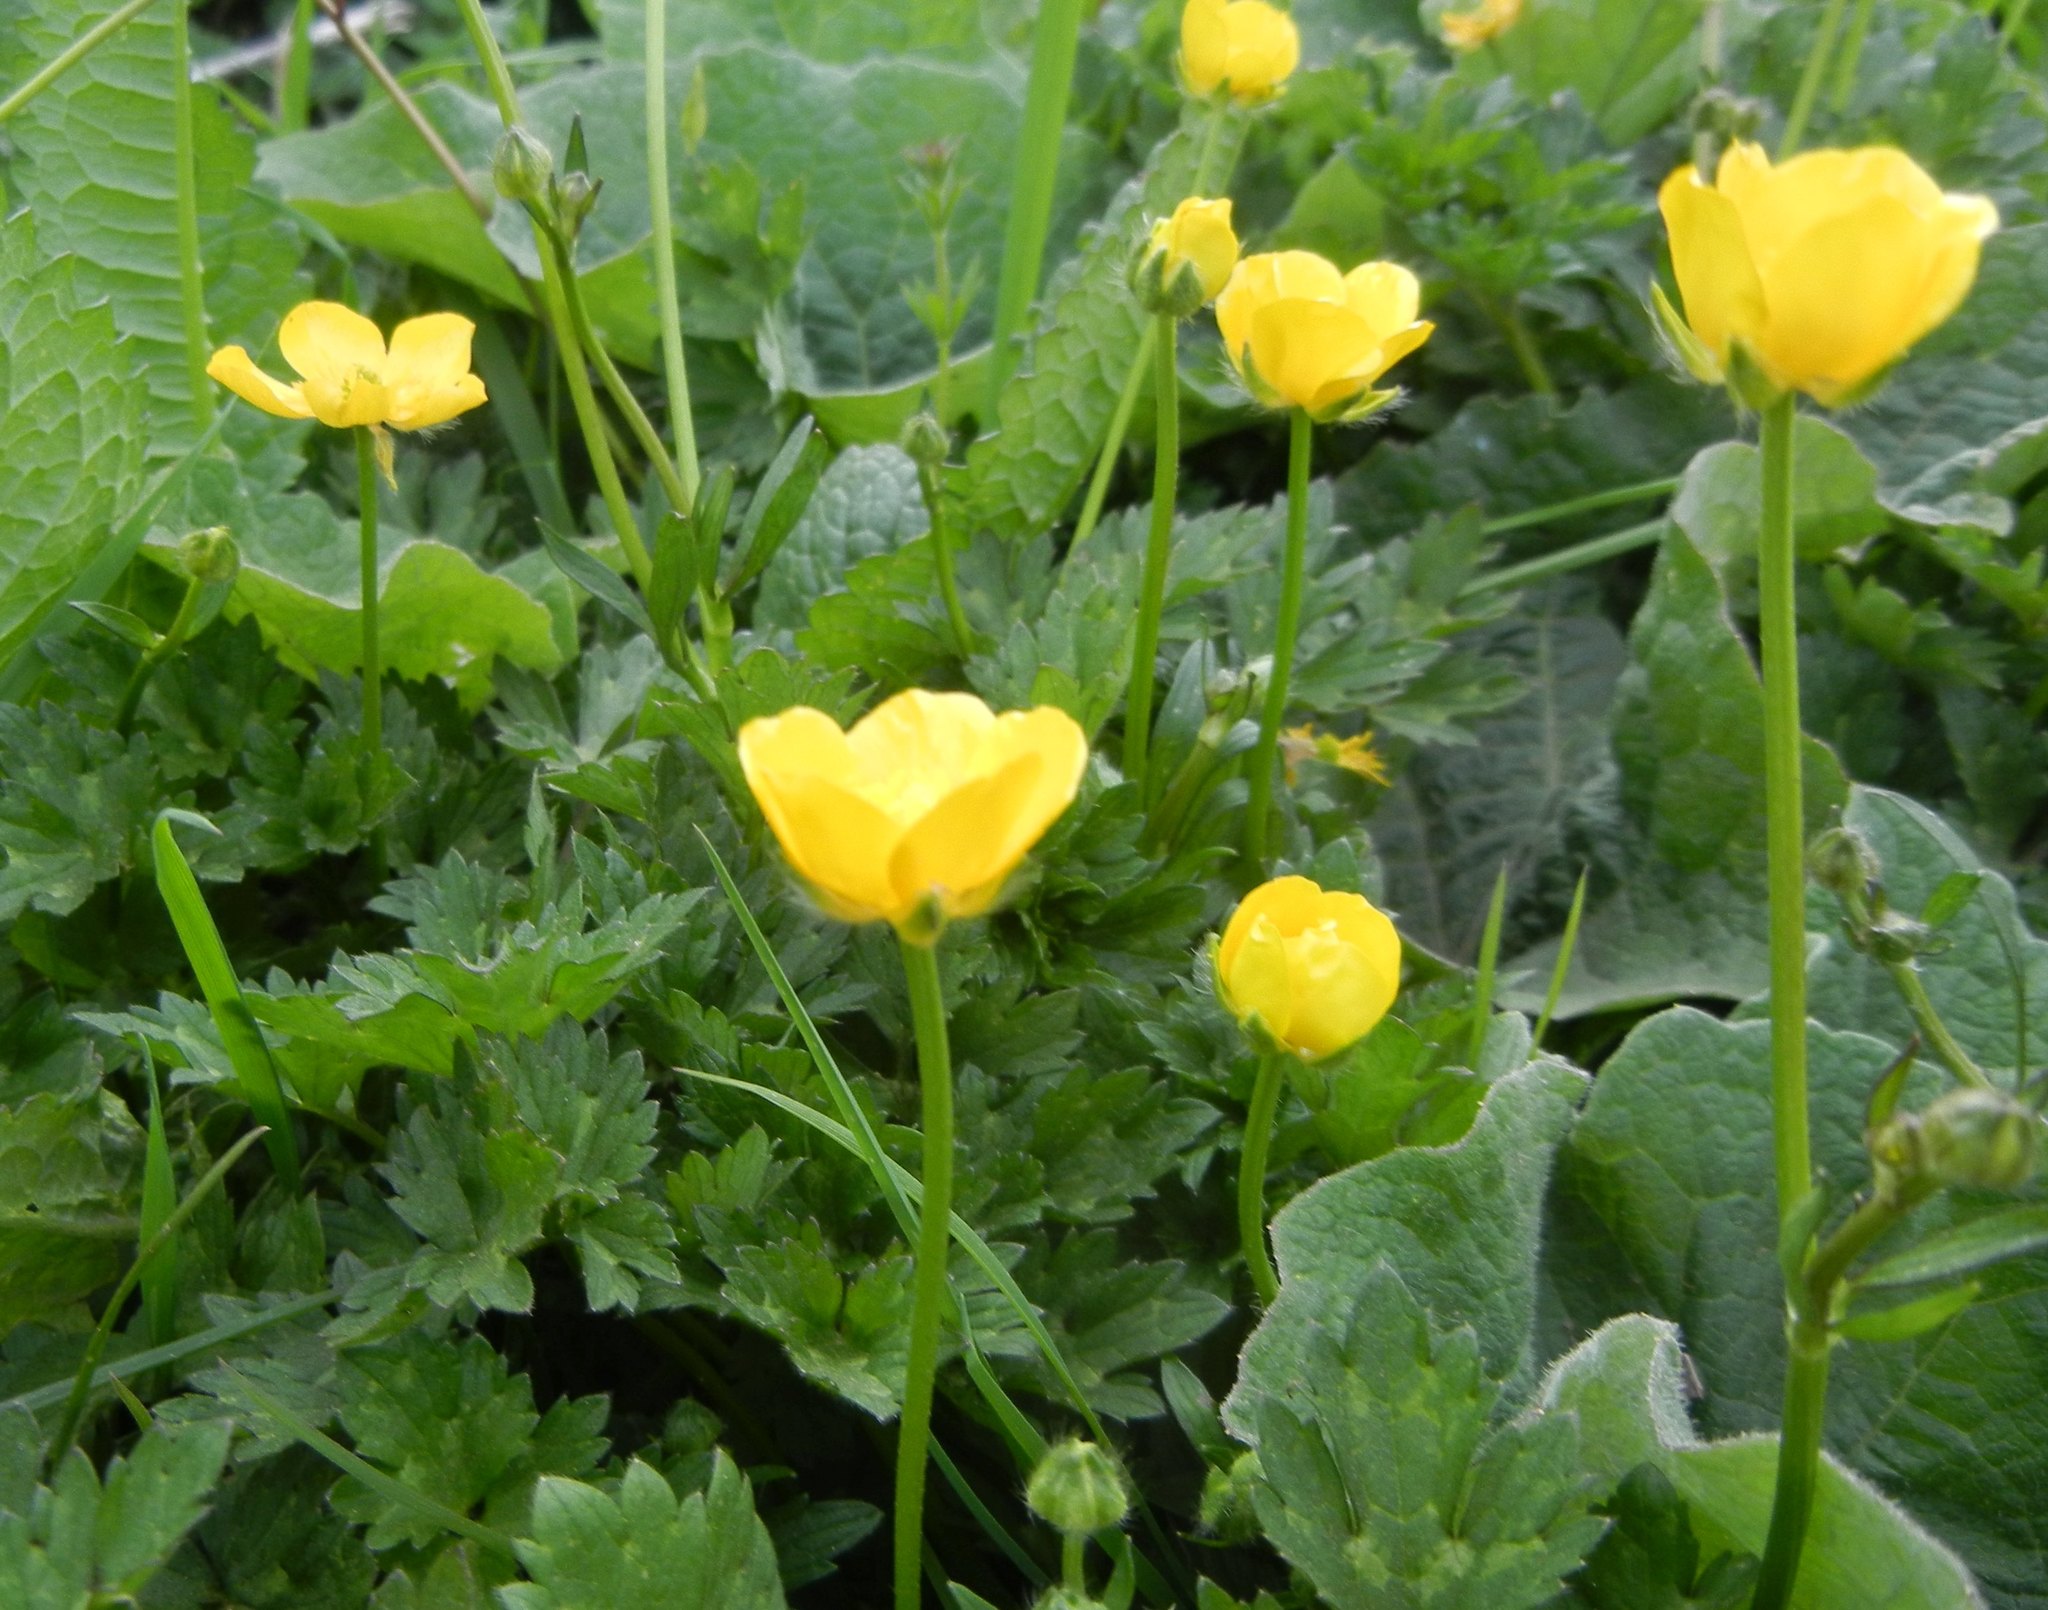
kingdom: Plantae
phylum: Tracheophyta
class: Magnoliopsida
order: Ranunculales
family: Ranunculaceae
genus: Ranunculus
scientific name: Ranunculus repens
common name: Creeping buttercup
